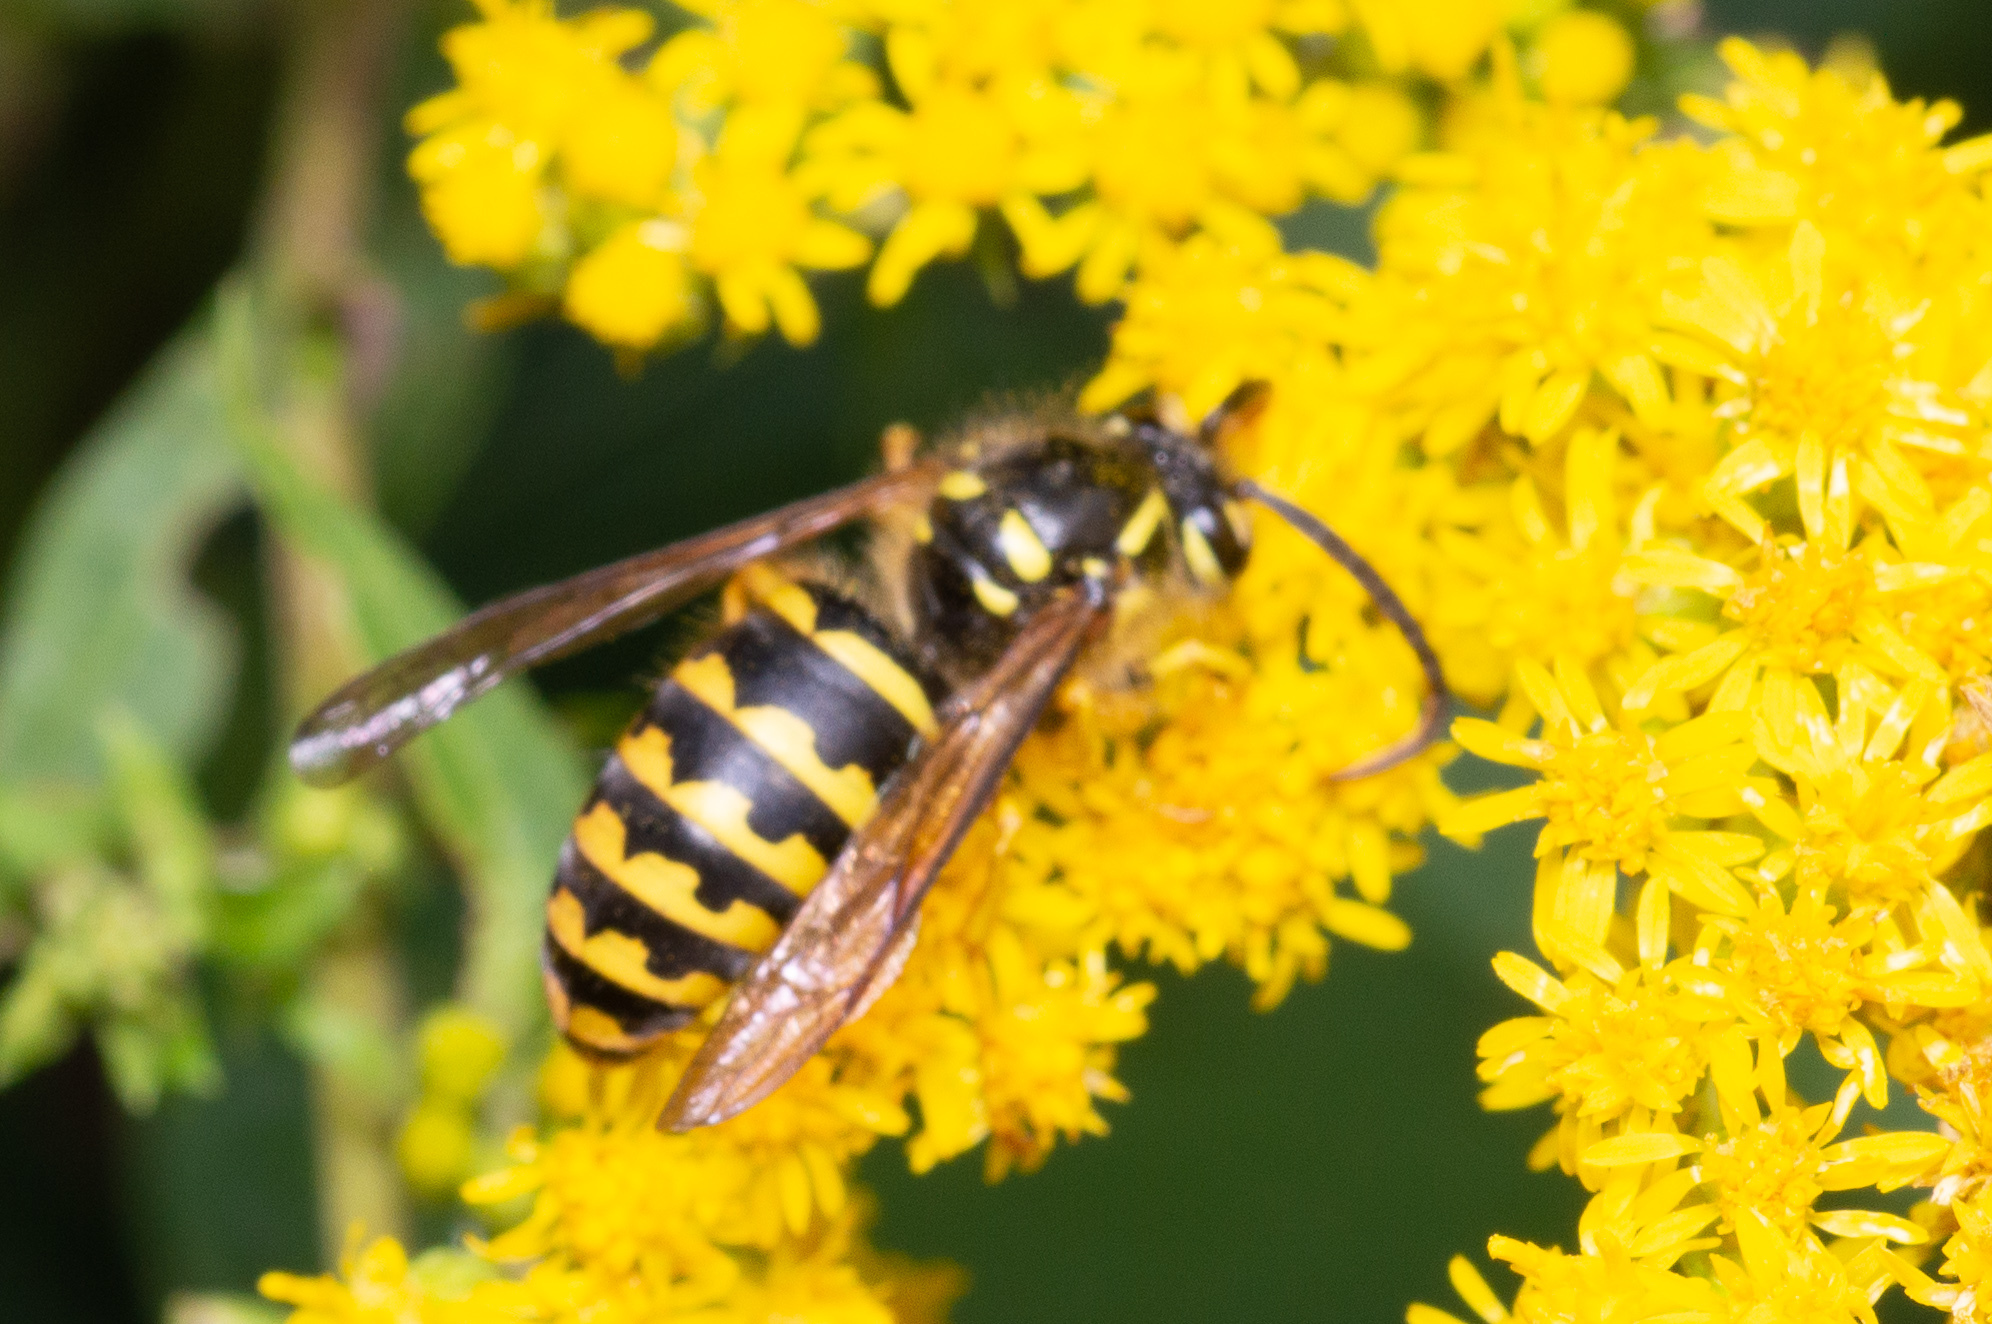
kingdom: Animalia
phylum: Arthropoda
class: Insecta
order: Hymenoptera
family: Vespidae
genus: Dolichovespula
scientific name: Dolichovespula arenaria
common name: Aerial yellowjacket
